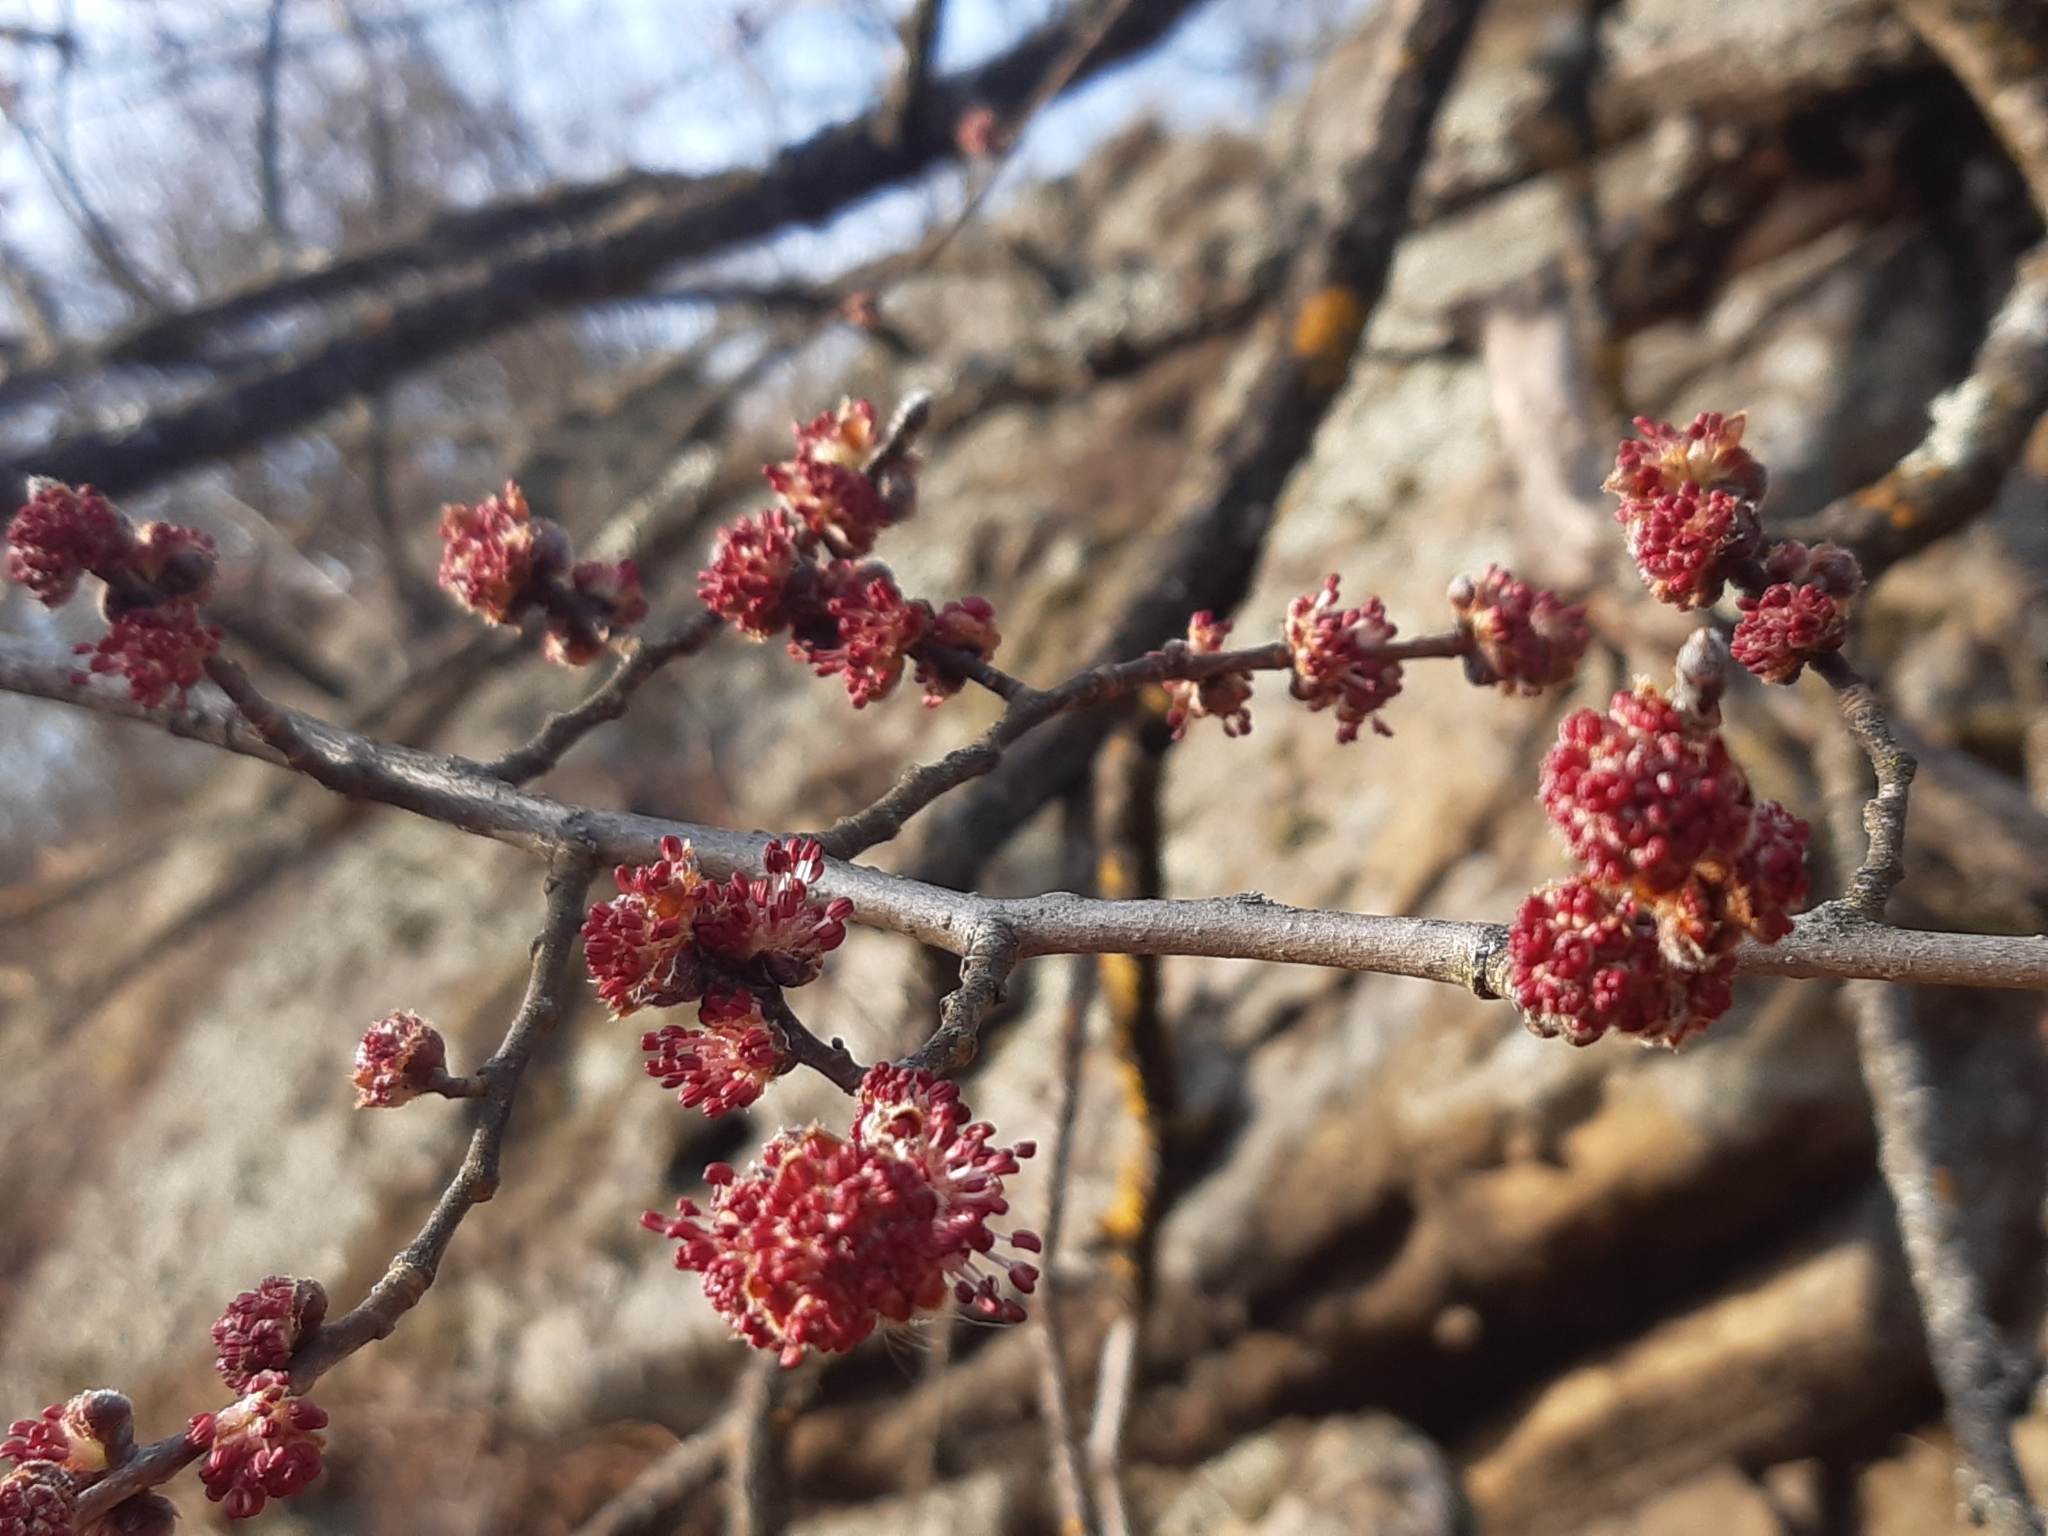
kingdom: Plantae
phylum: Tracheophyta
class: Magnoliopsida
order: Rosales
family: Ulmaceae
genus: Ulmus
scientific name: Ulmus minor
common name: Small-leaved elm
